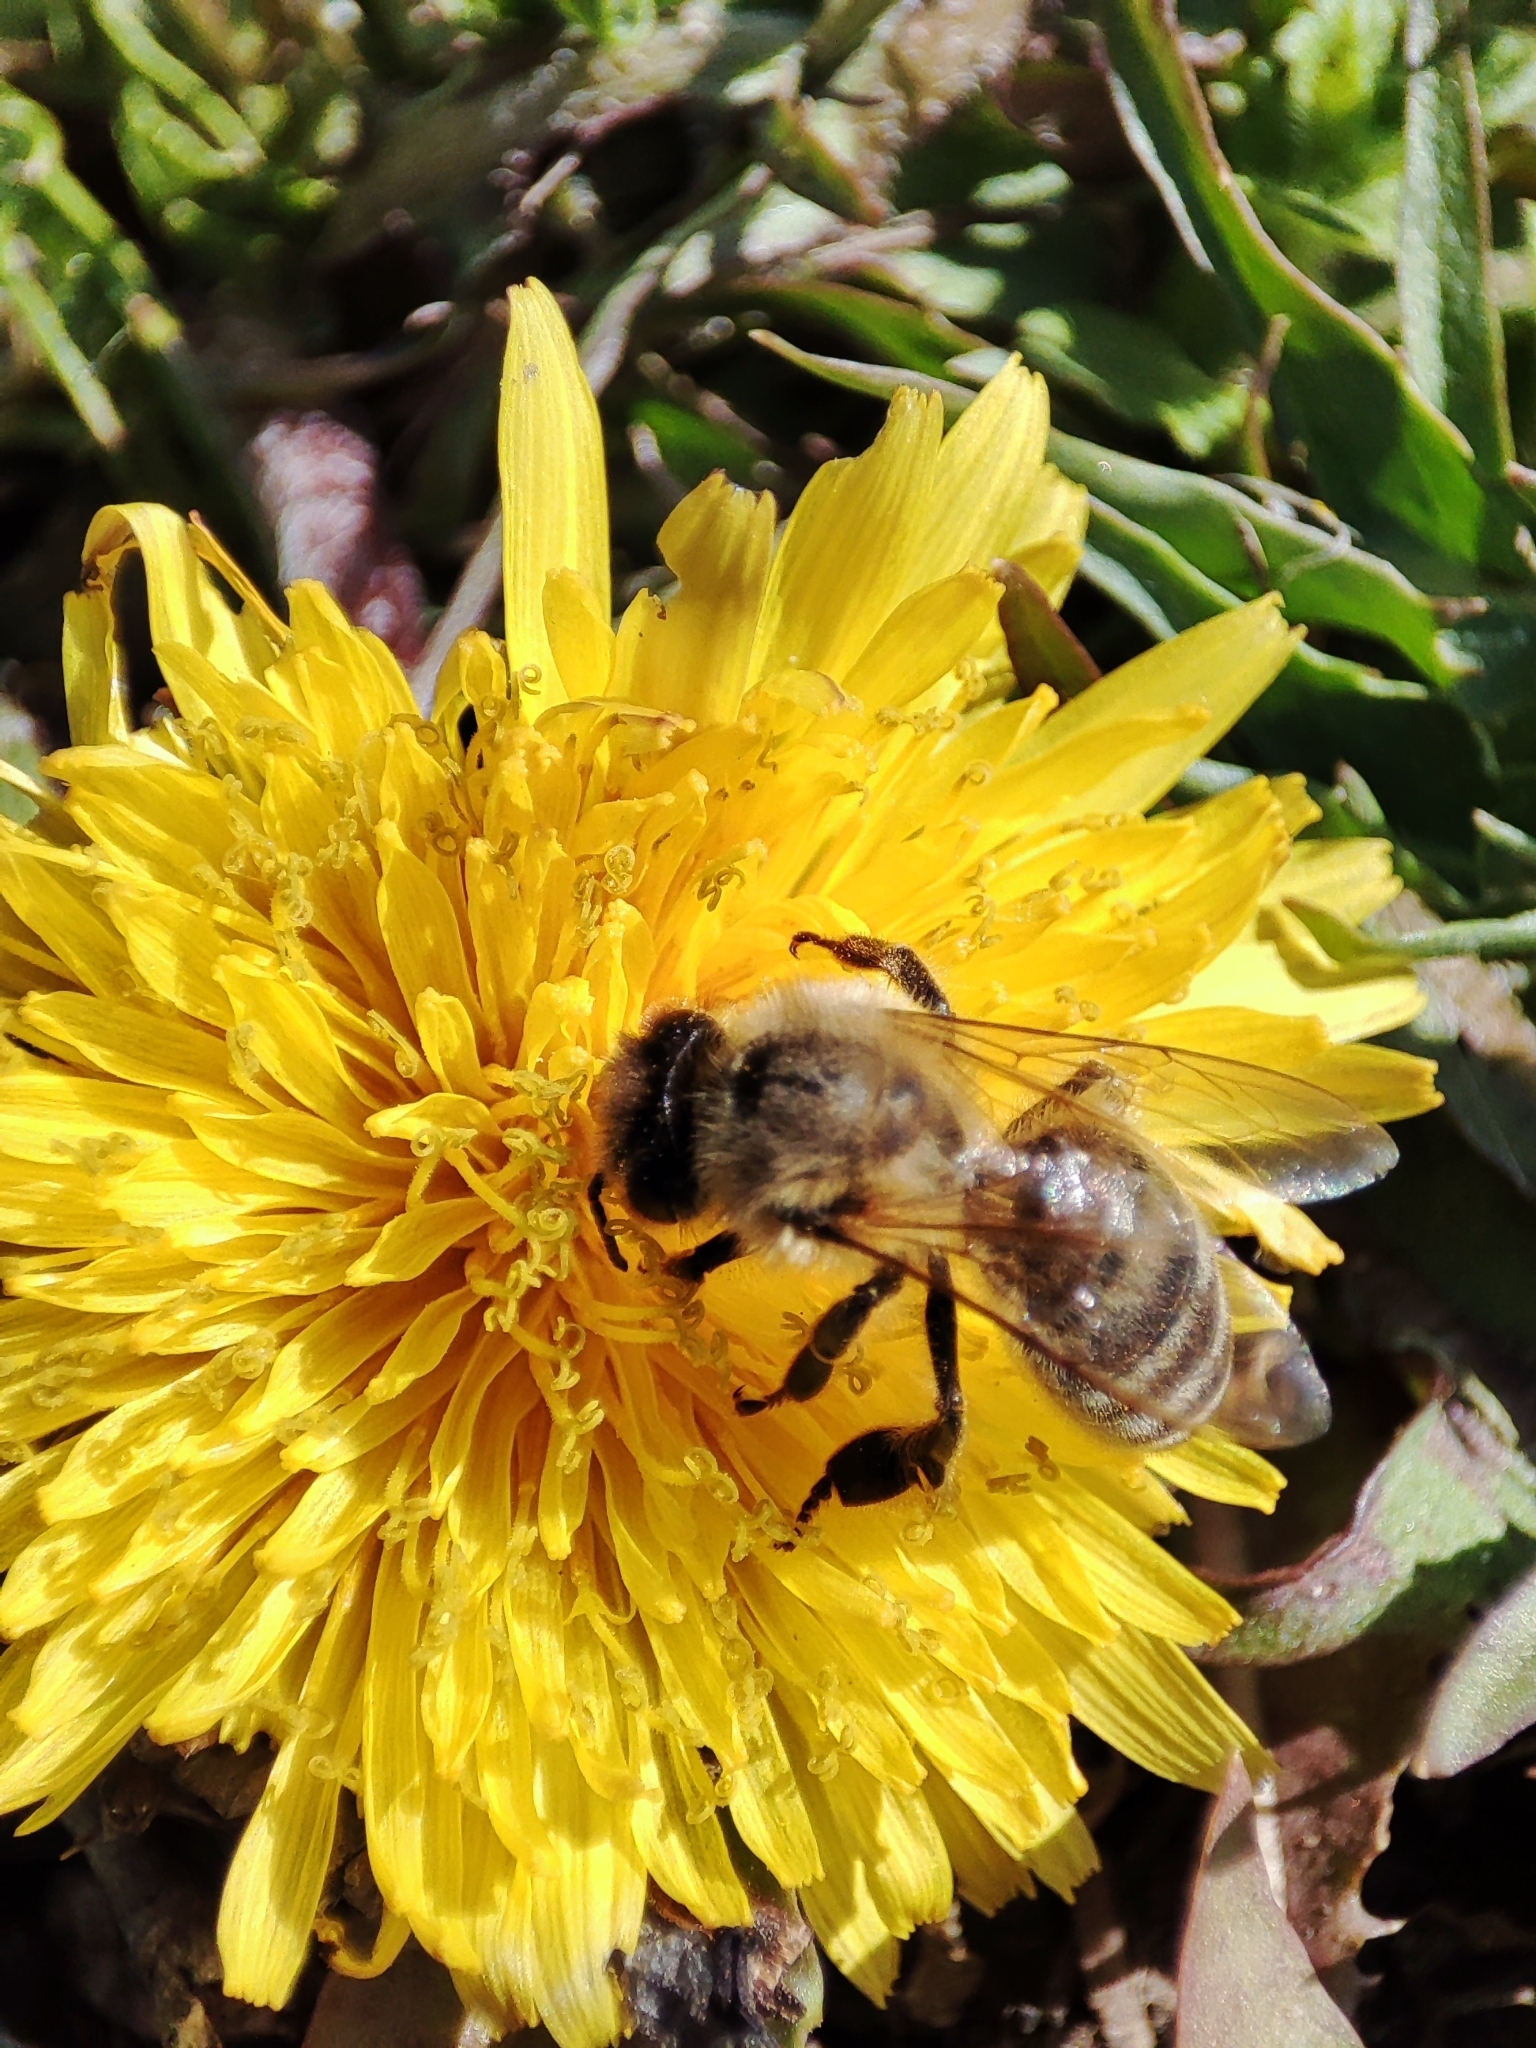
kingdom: Animalia
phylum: Arthropoda
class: Insecta
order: Hymenoptera
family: Apidae
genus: Apis
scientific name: Apis mellifera
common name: Honey bee
